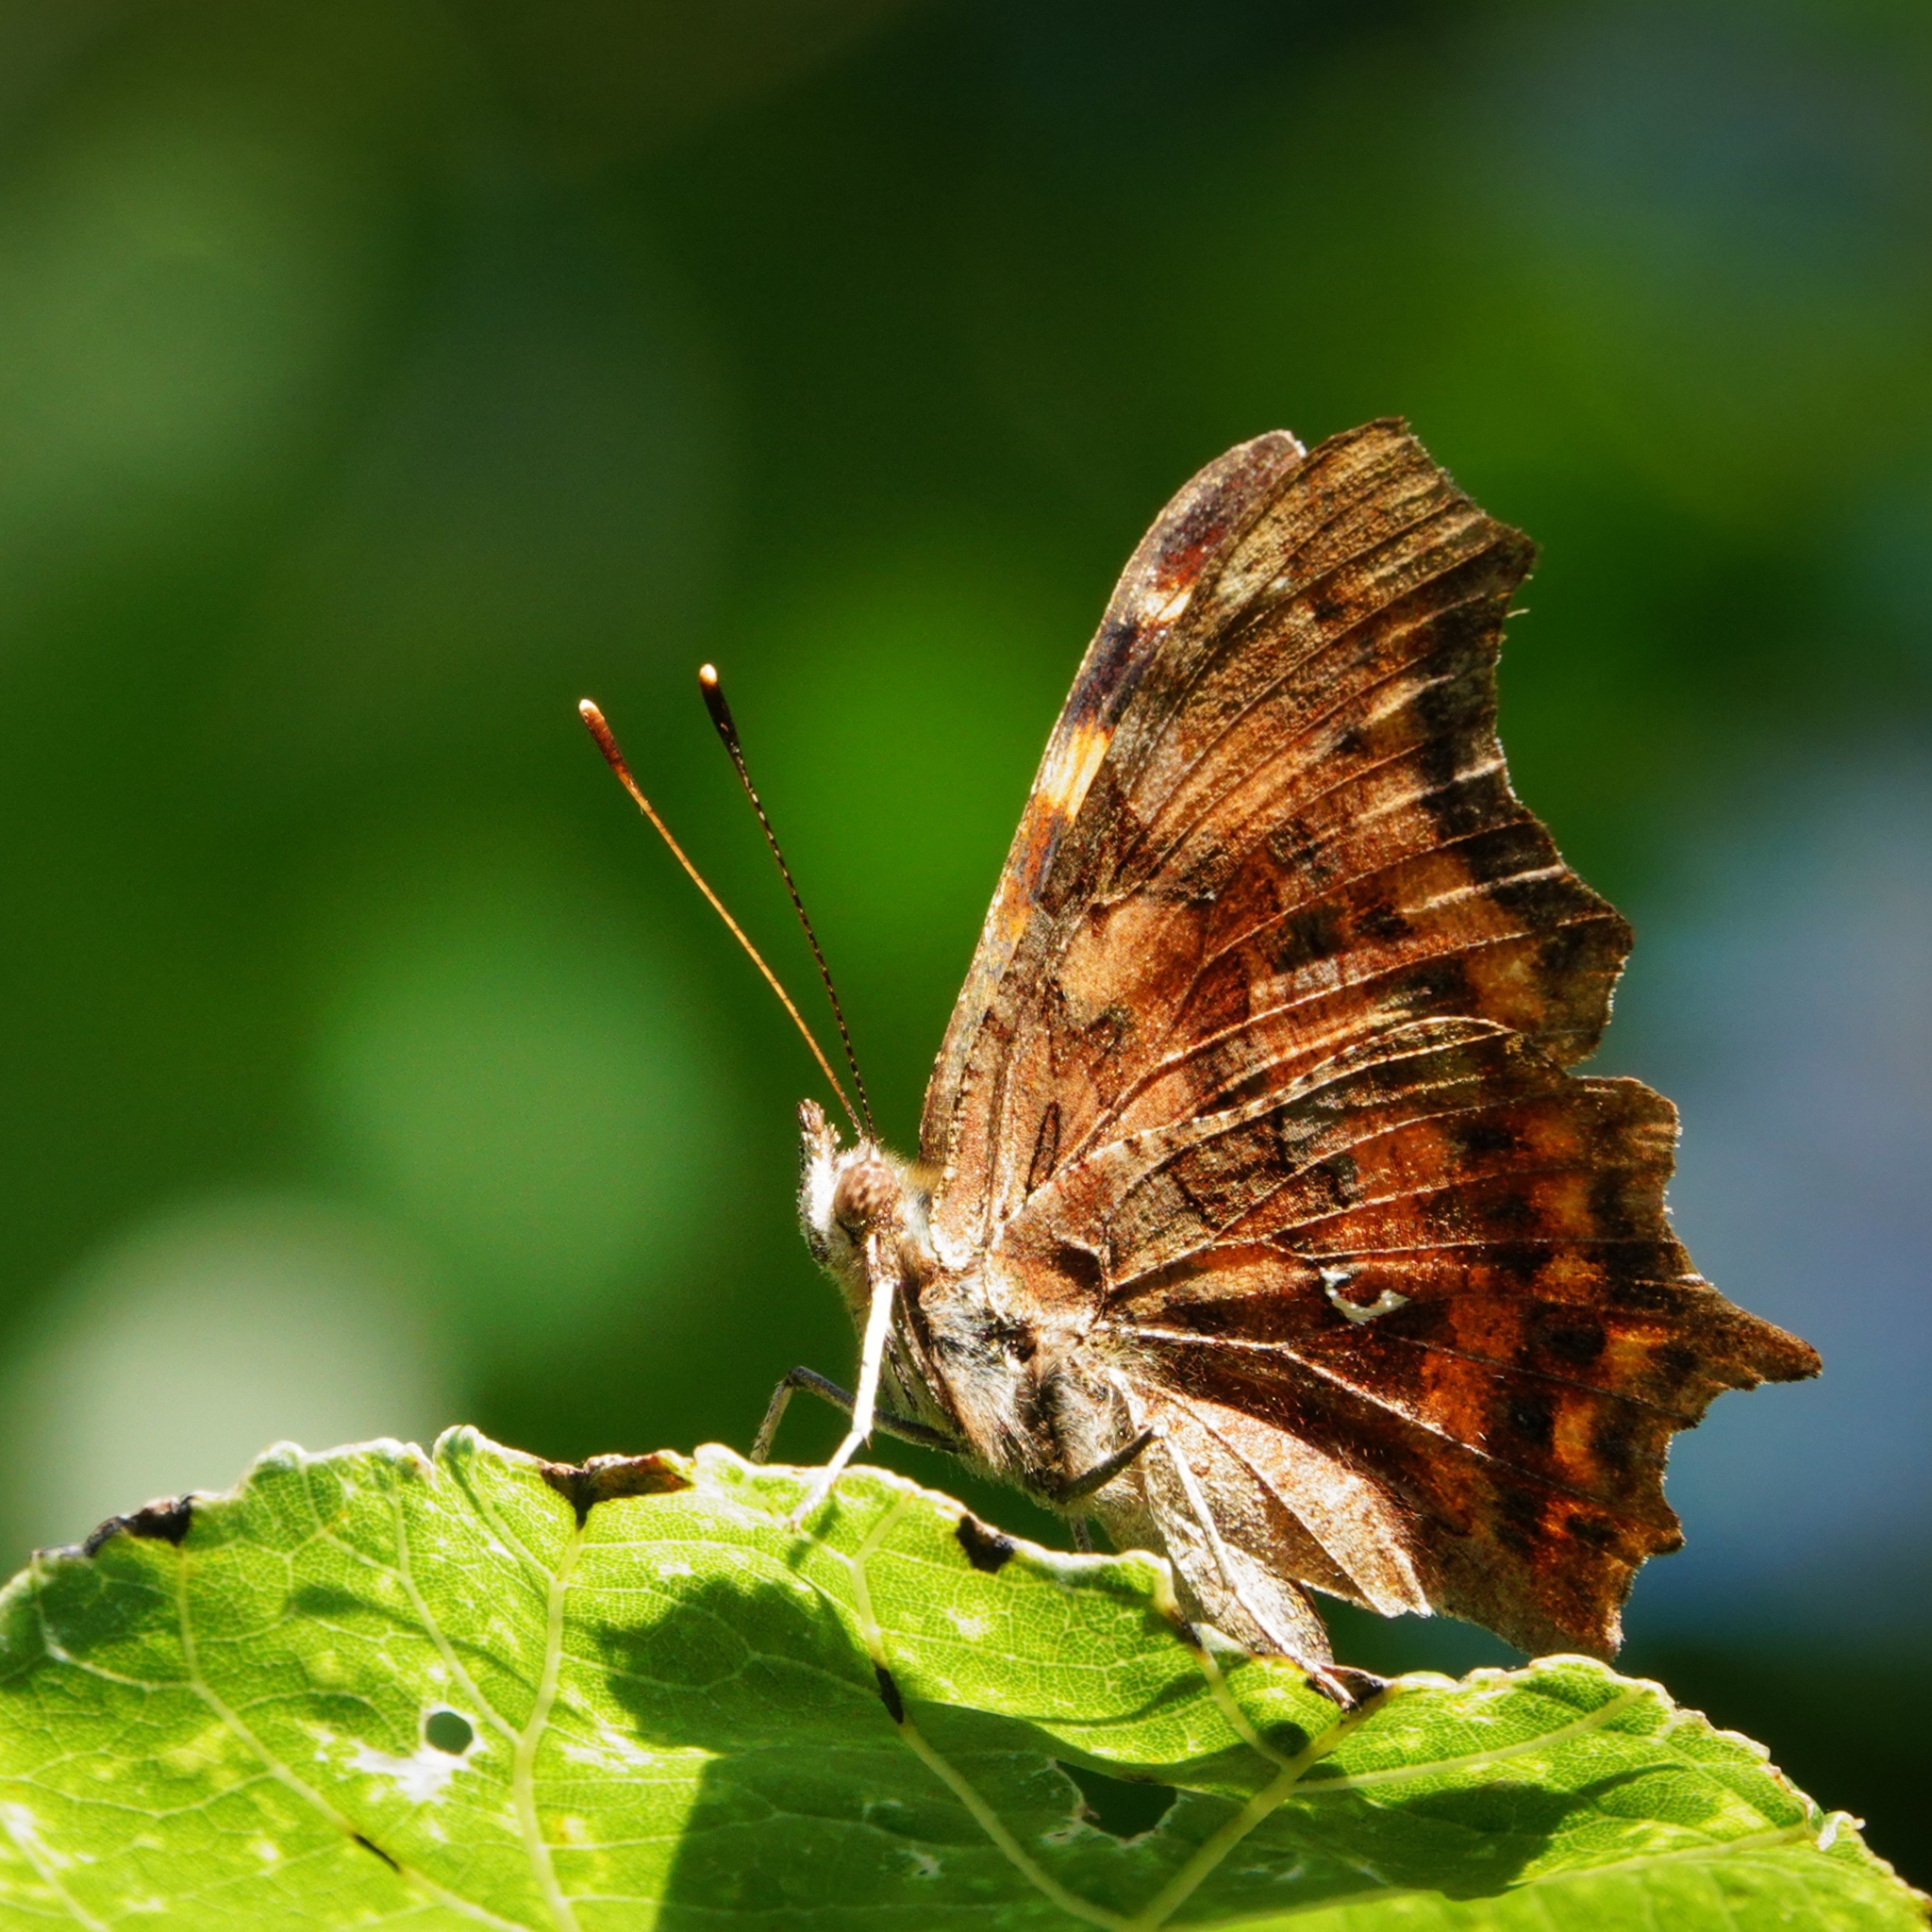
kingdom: Animalia
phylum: Arthropoda
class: Insecta
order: Lepidoptera
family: Nymphalidae
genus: Polygonia
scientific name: Polygonia c-album
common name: Comma
